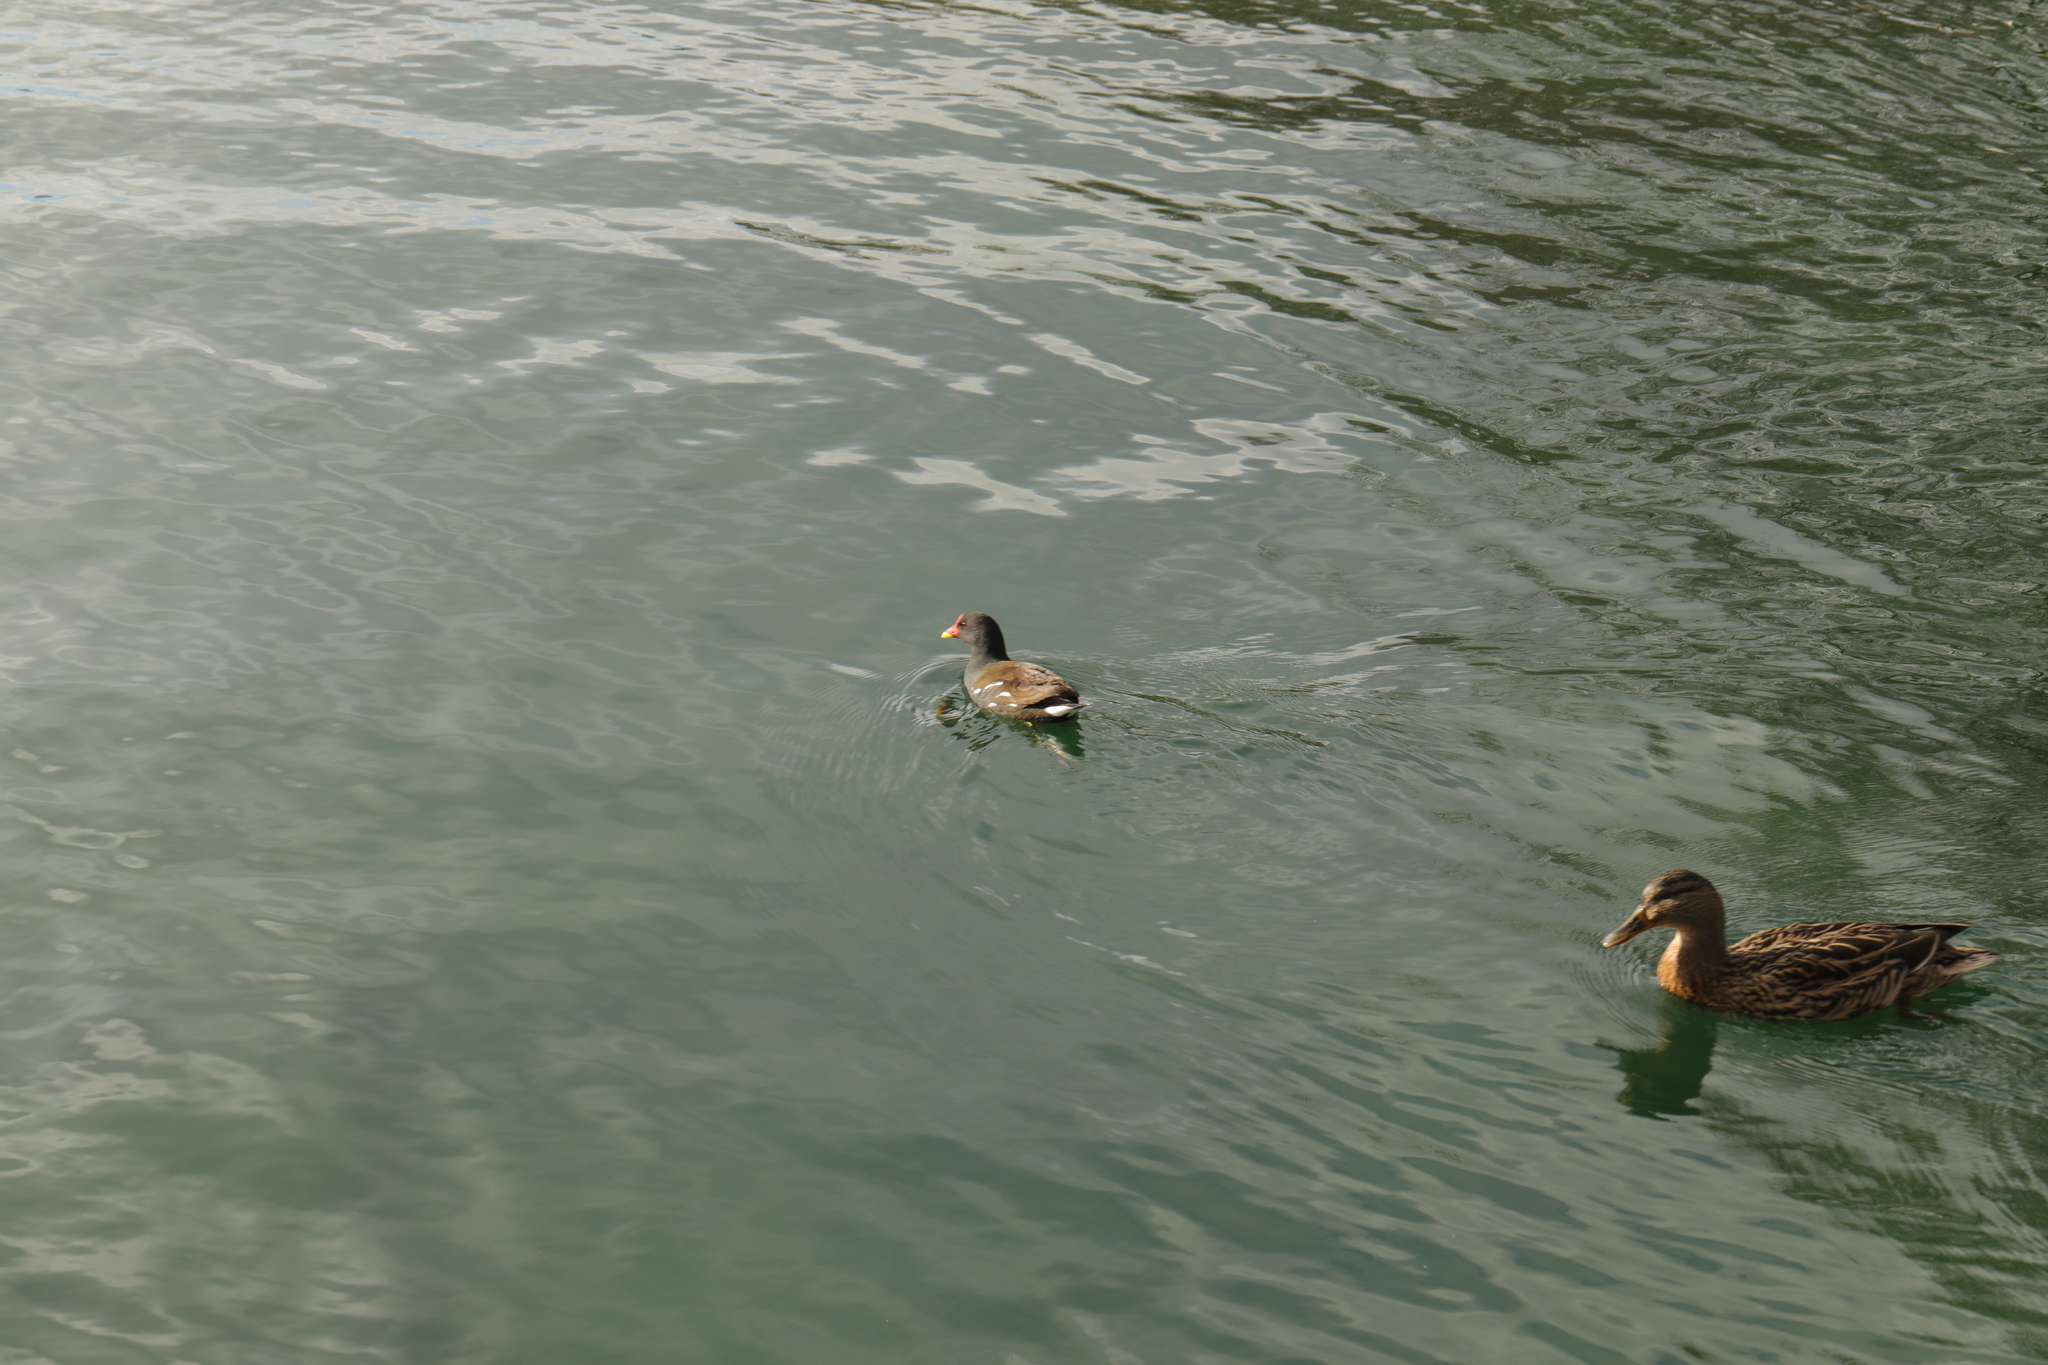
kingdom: Animalia
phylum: Chordata
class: Aves
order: Gruiformes
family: Rallidae
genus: Gallinula
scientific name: Gallinula chloropus
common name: Common moorhen
